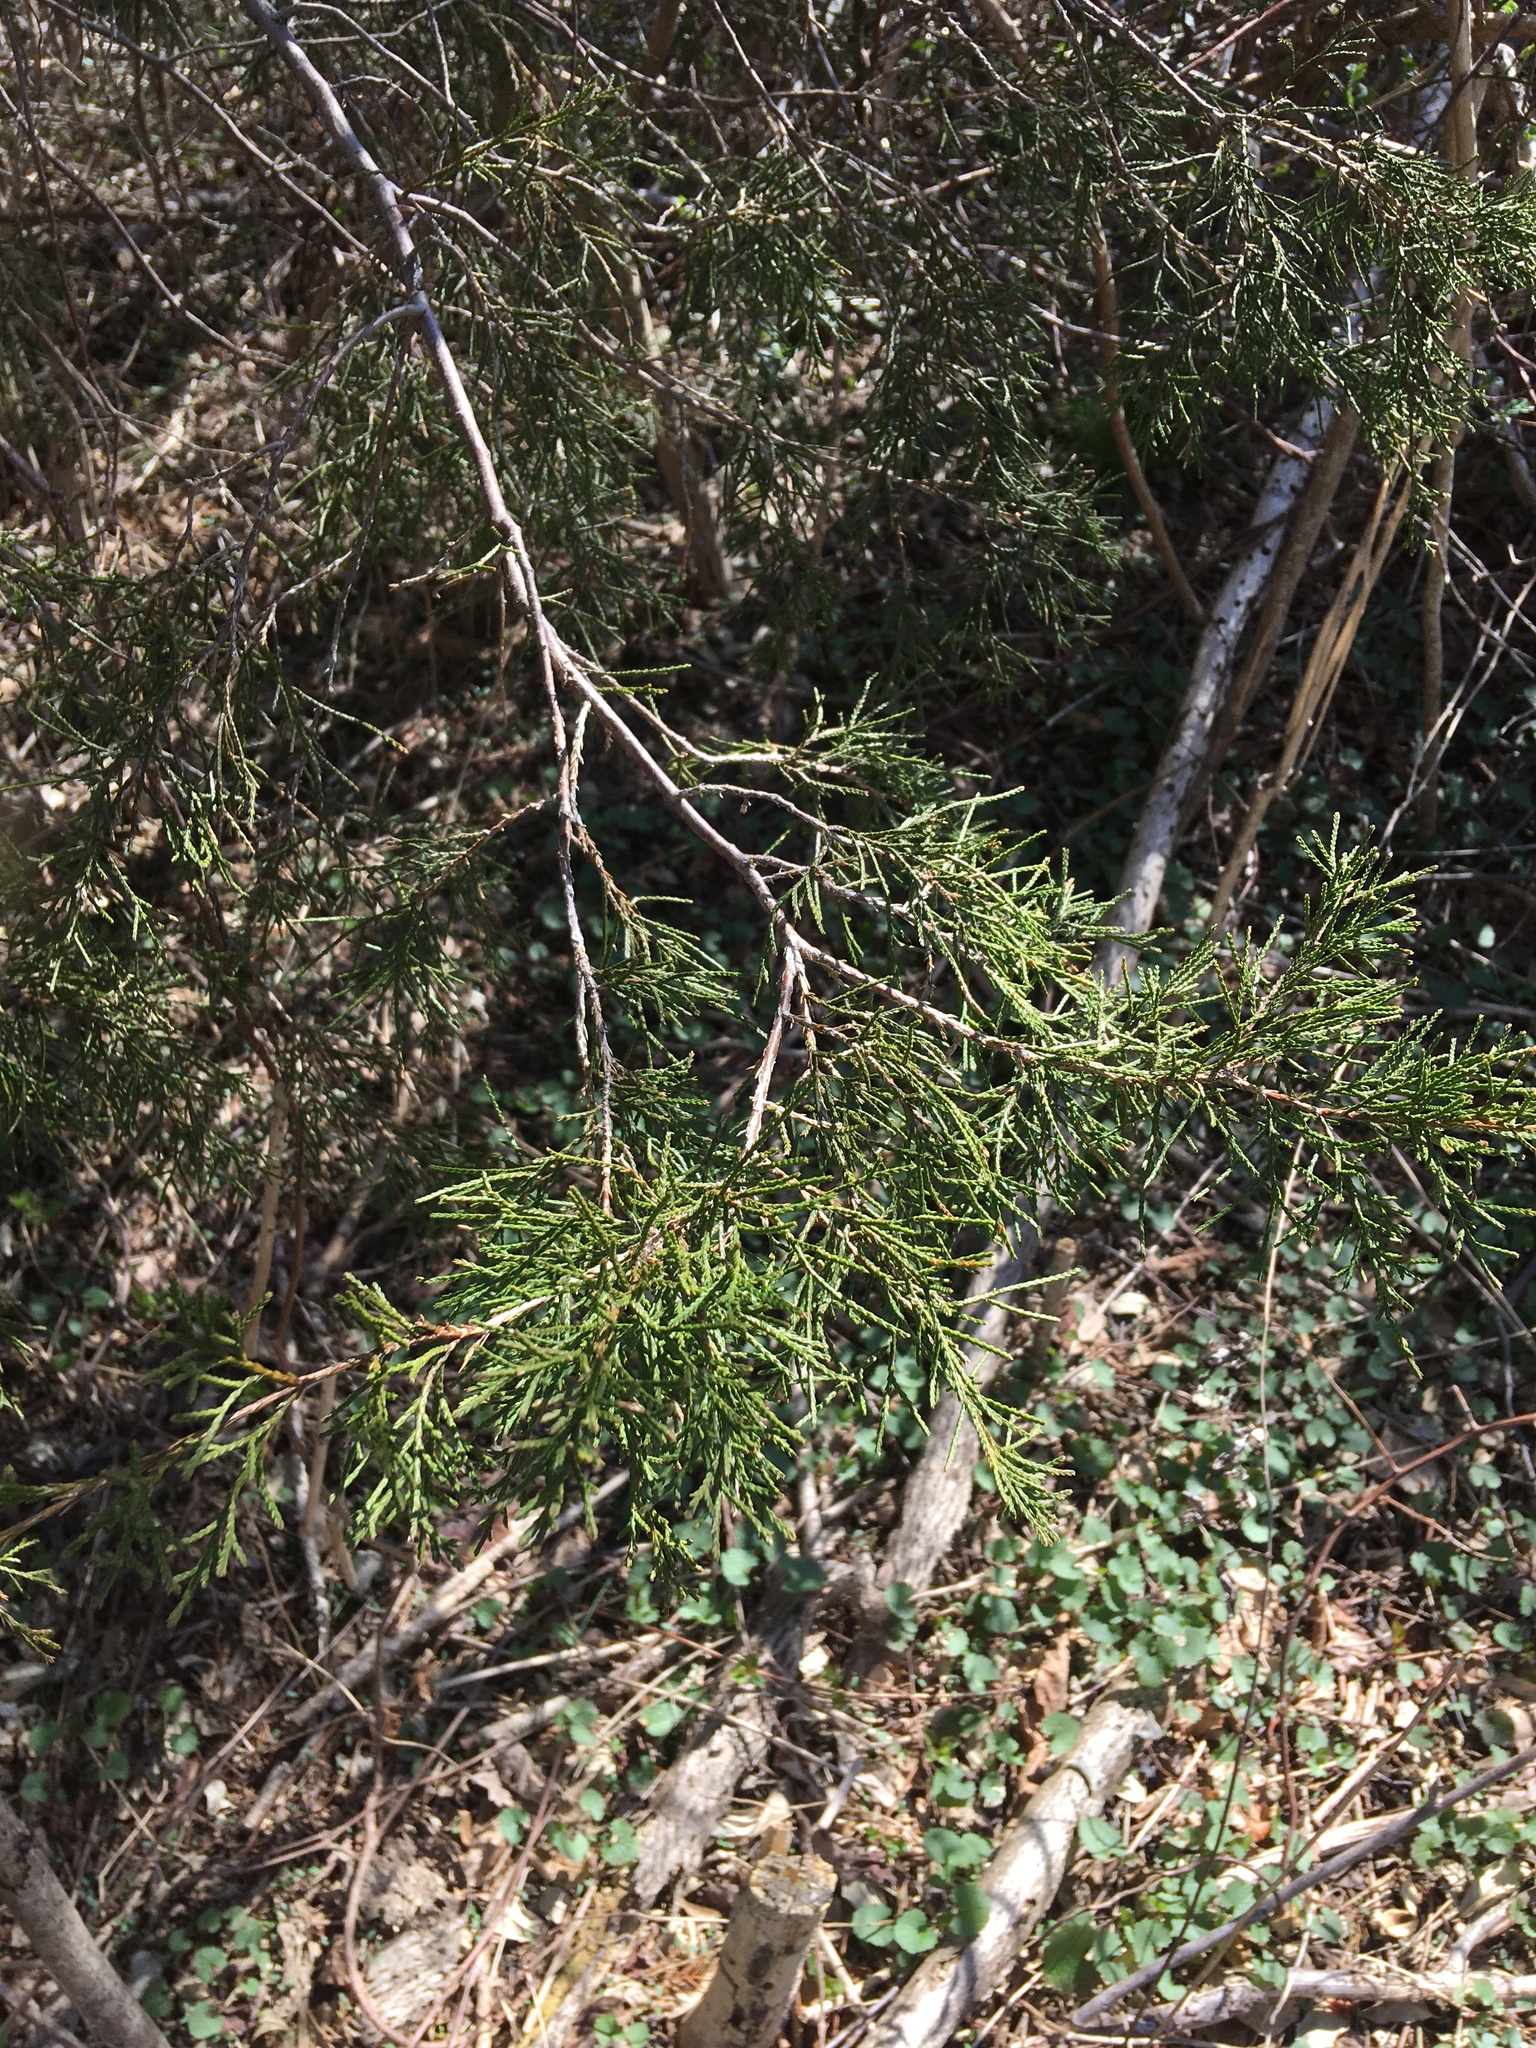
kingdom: Plantae
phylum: Tracheophyta
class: Pinopsida
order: Pinales
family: Cupressaceae
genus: Juniperus
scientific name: Juniperus virginiana
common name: Red juniper
